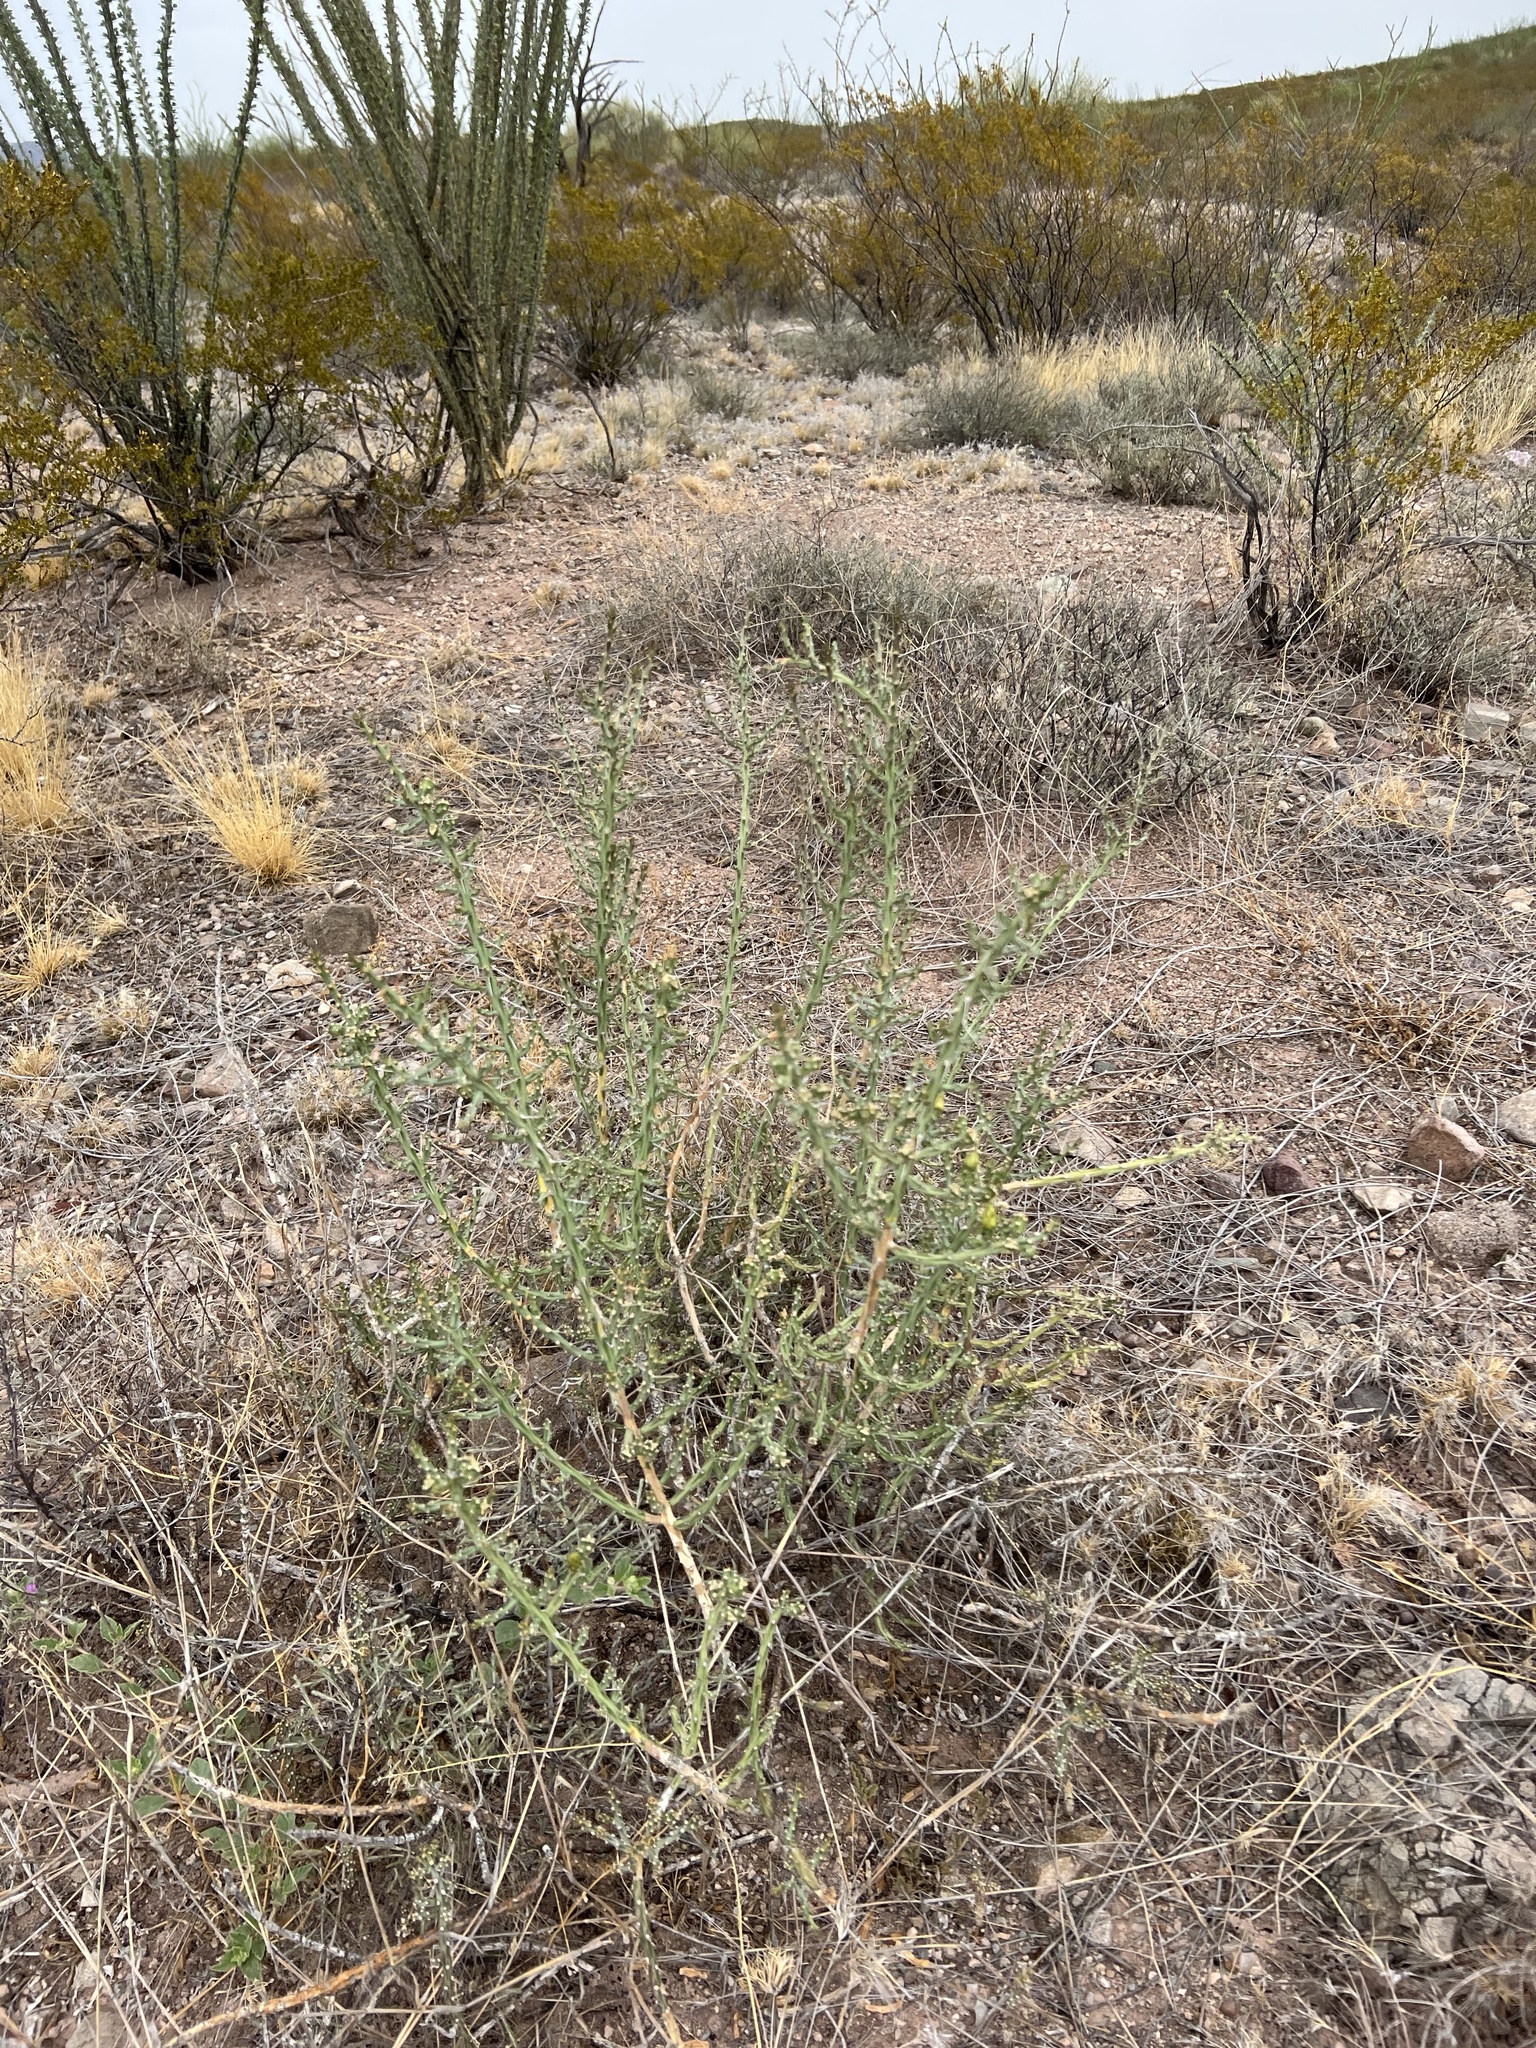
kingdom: Plantae
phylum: Tracheophyta
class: Magnoliopsida
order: Caryophyllales
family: Cactaceae
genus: Cylindropuntia
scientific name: Cylindropuntia leptocaulis
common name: Christmas cactus
